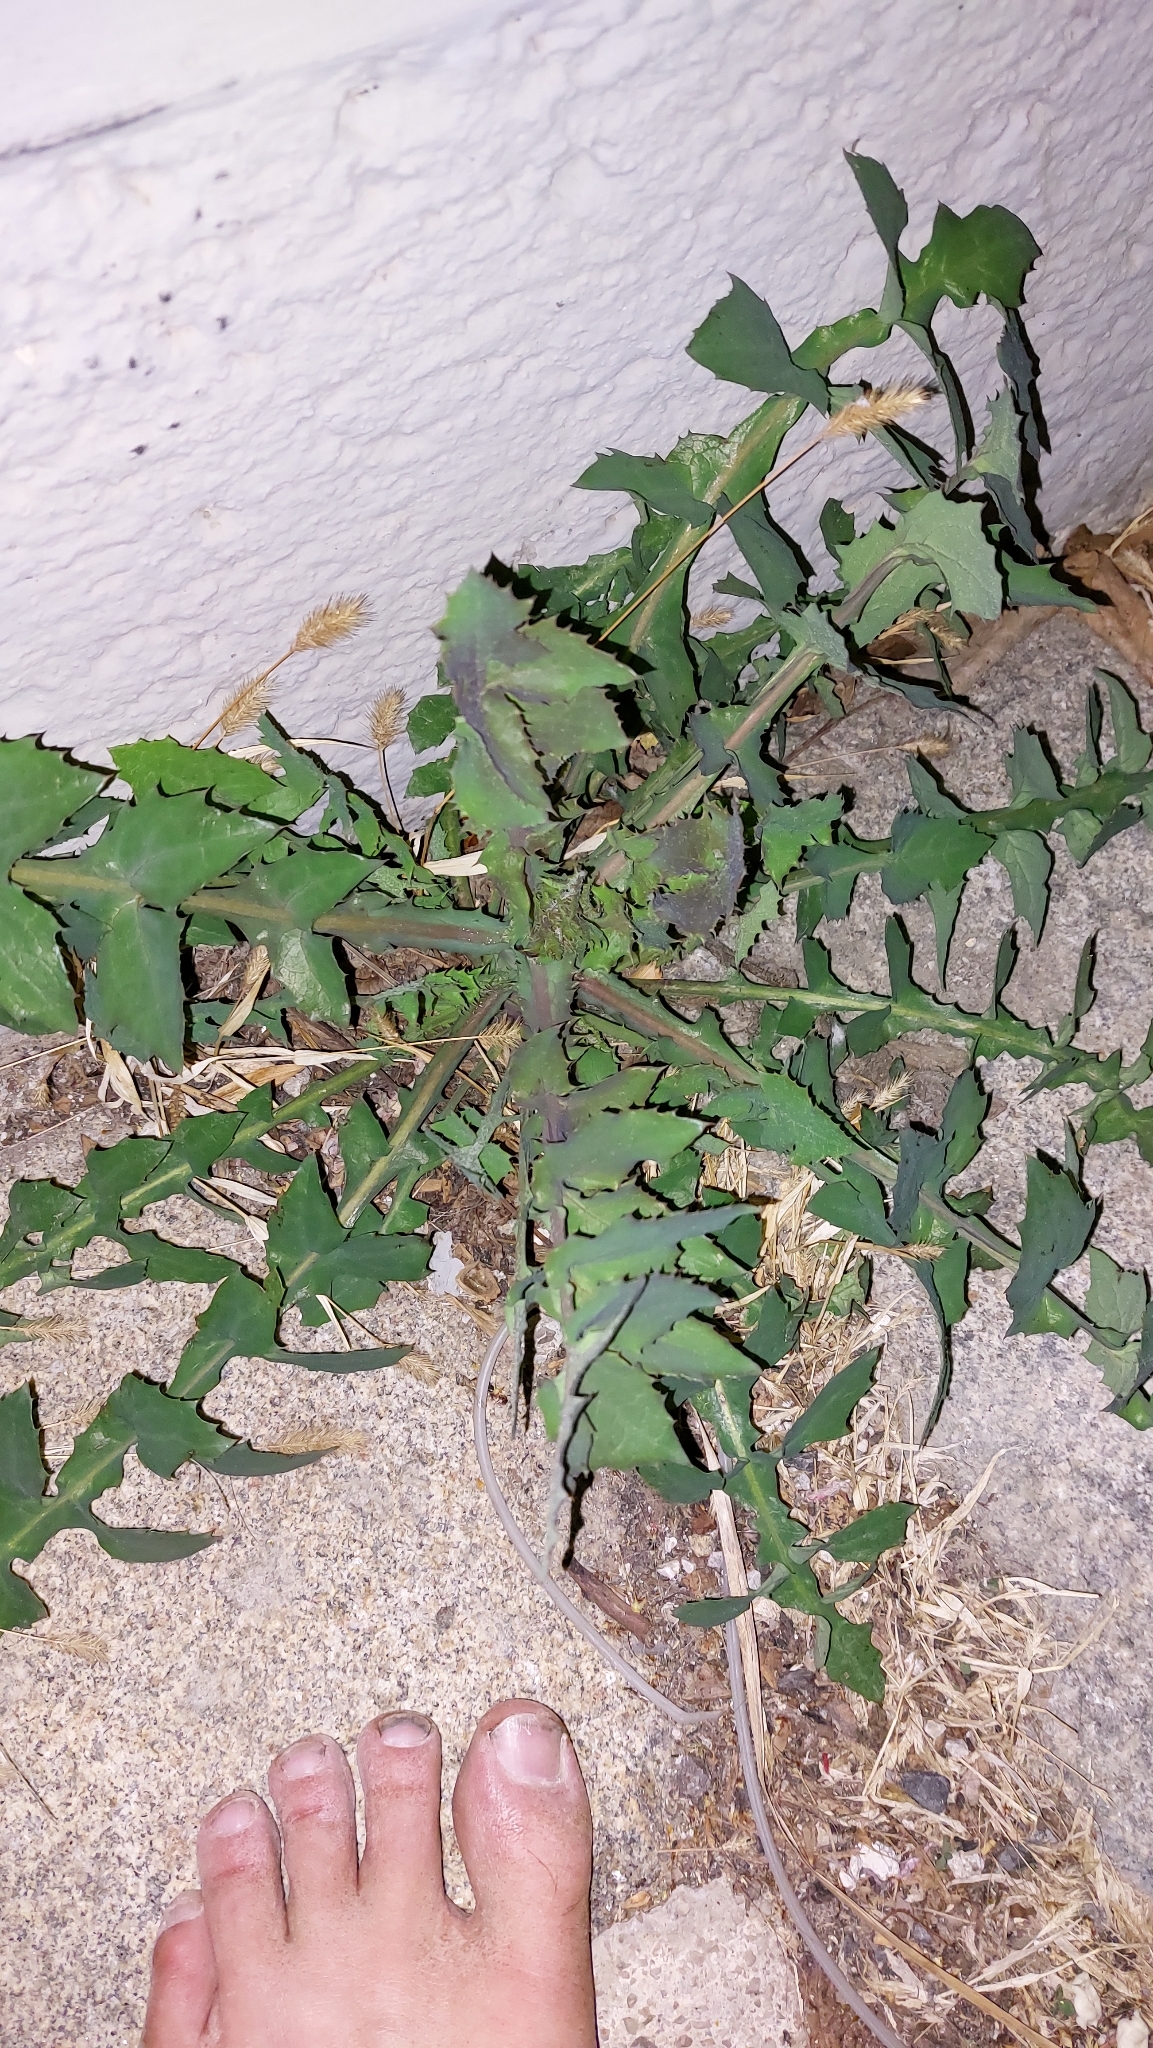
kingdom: Plantae
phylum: Tracheophyta
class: Magnoliopsida
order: Asterales
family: Asteraceae
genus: Sonchus
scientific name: Sonchus oleraceus
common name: Common sowthistle
